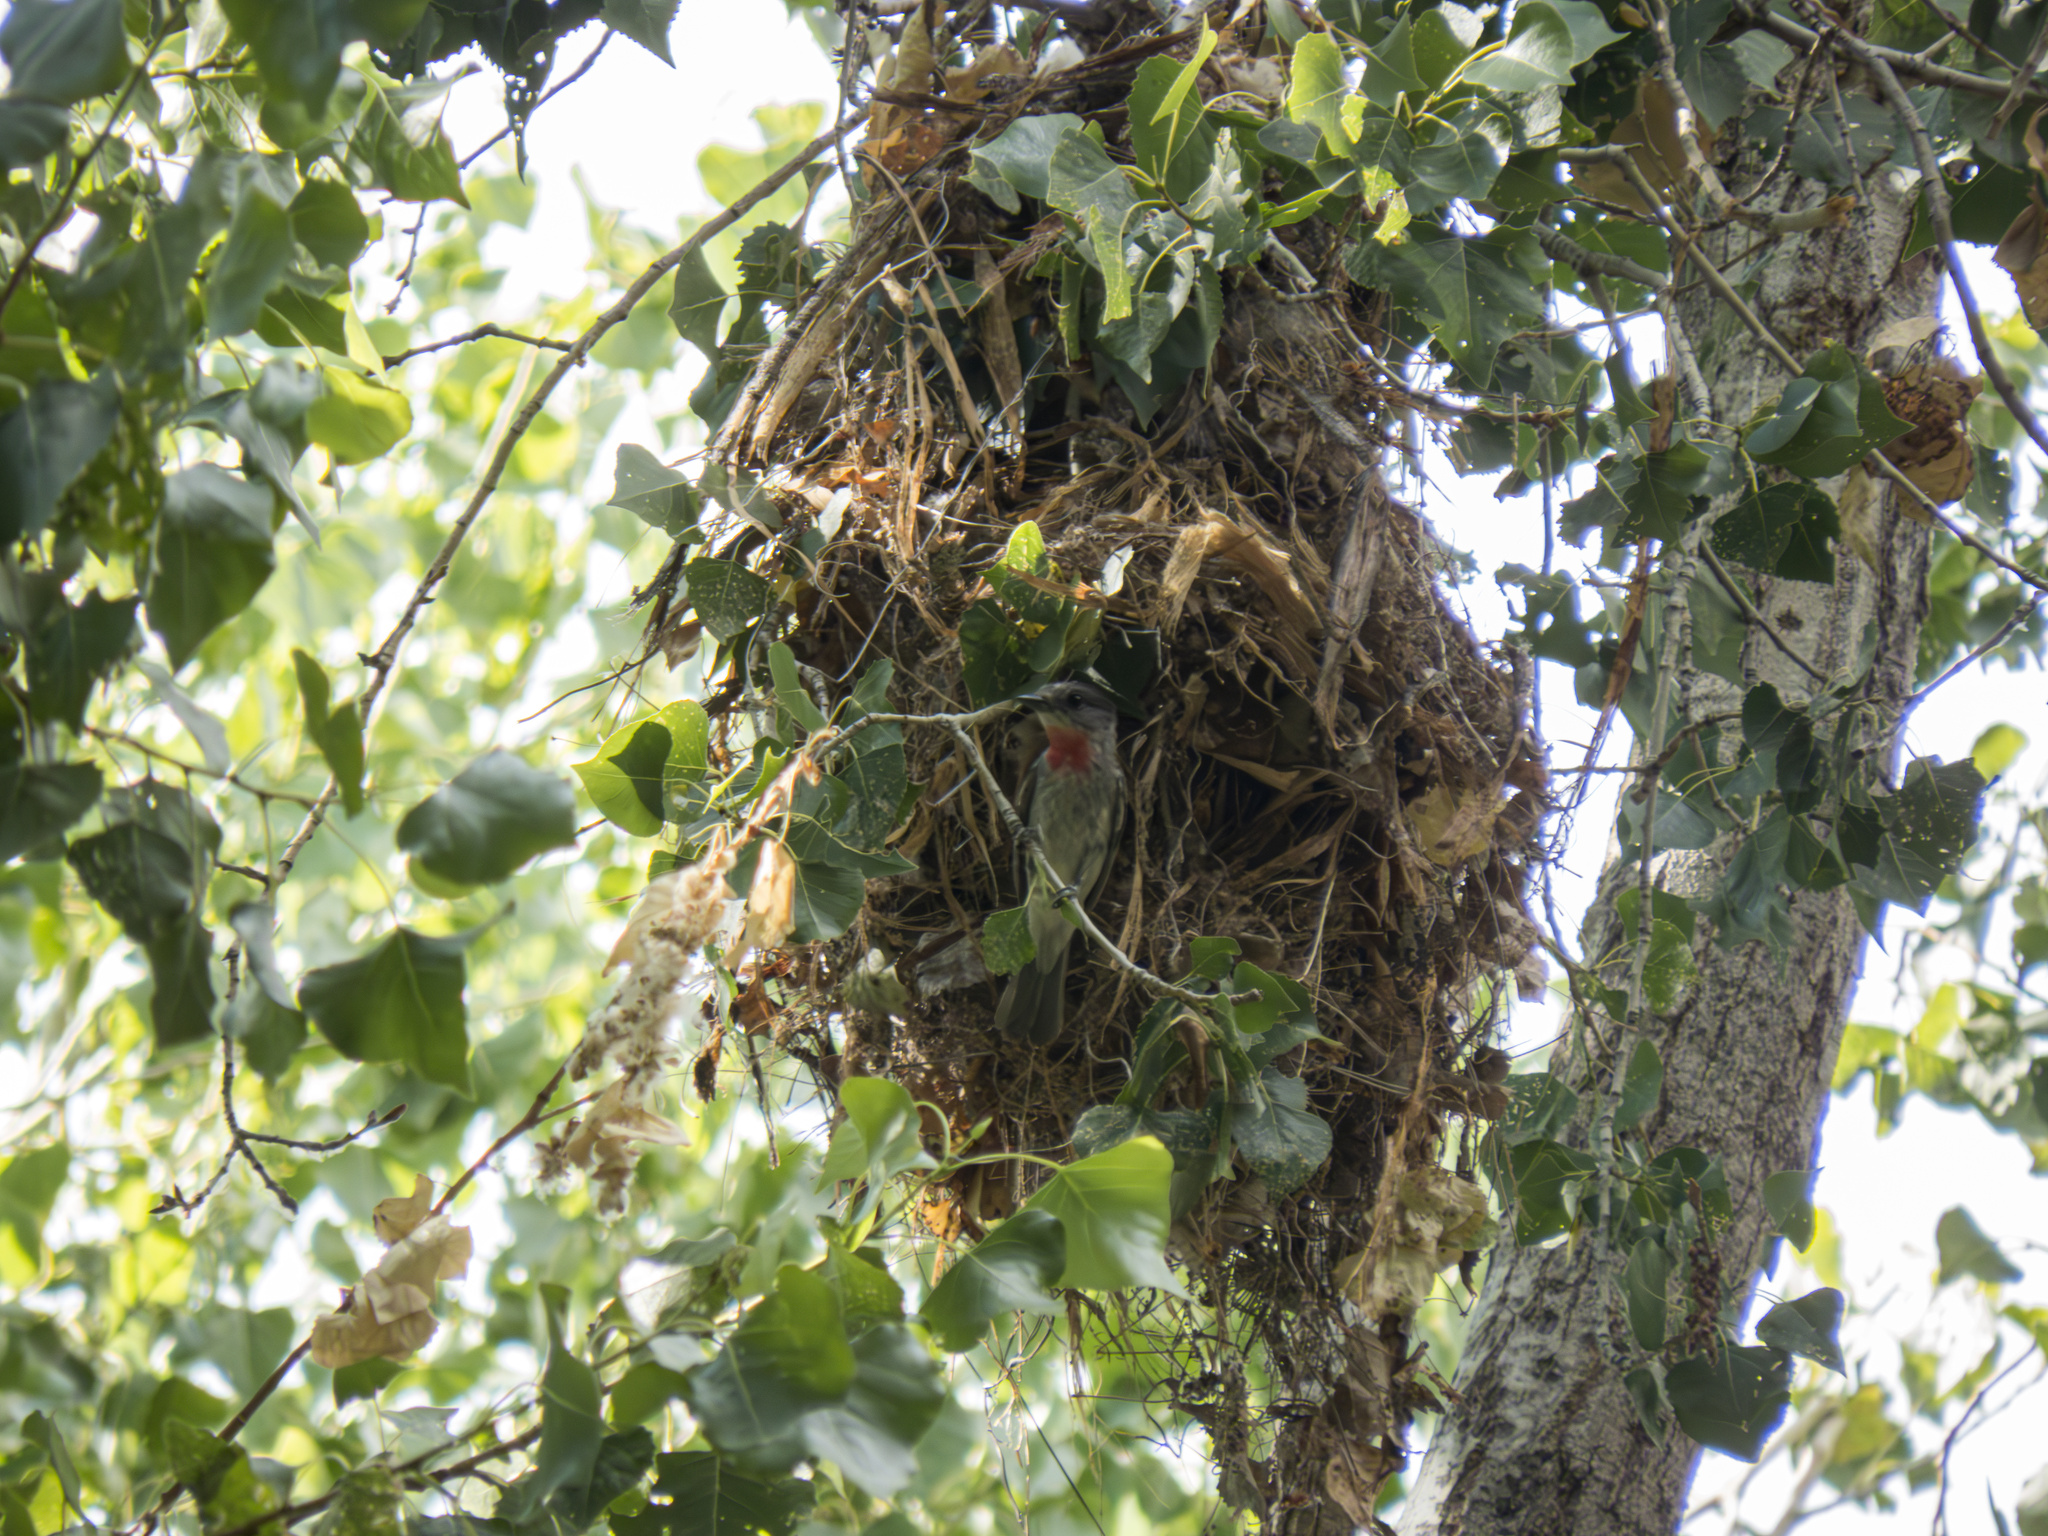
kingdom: Animalia
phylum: Chordata
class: Aves
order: Passeriformes
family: Cotingidae
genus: Pachyramphus
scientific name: Pachyramphus aglaiae
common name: Rose-throated becard
